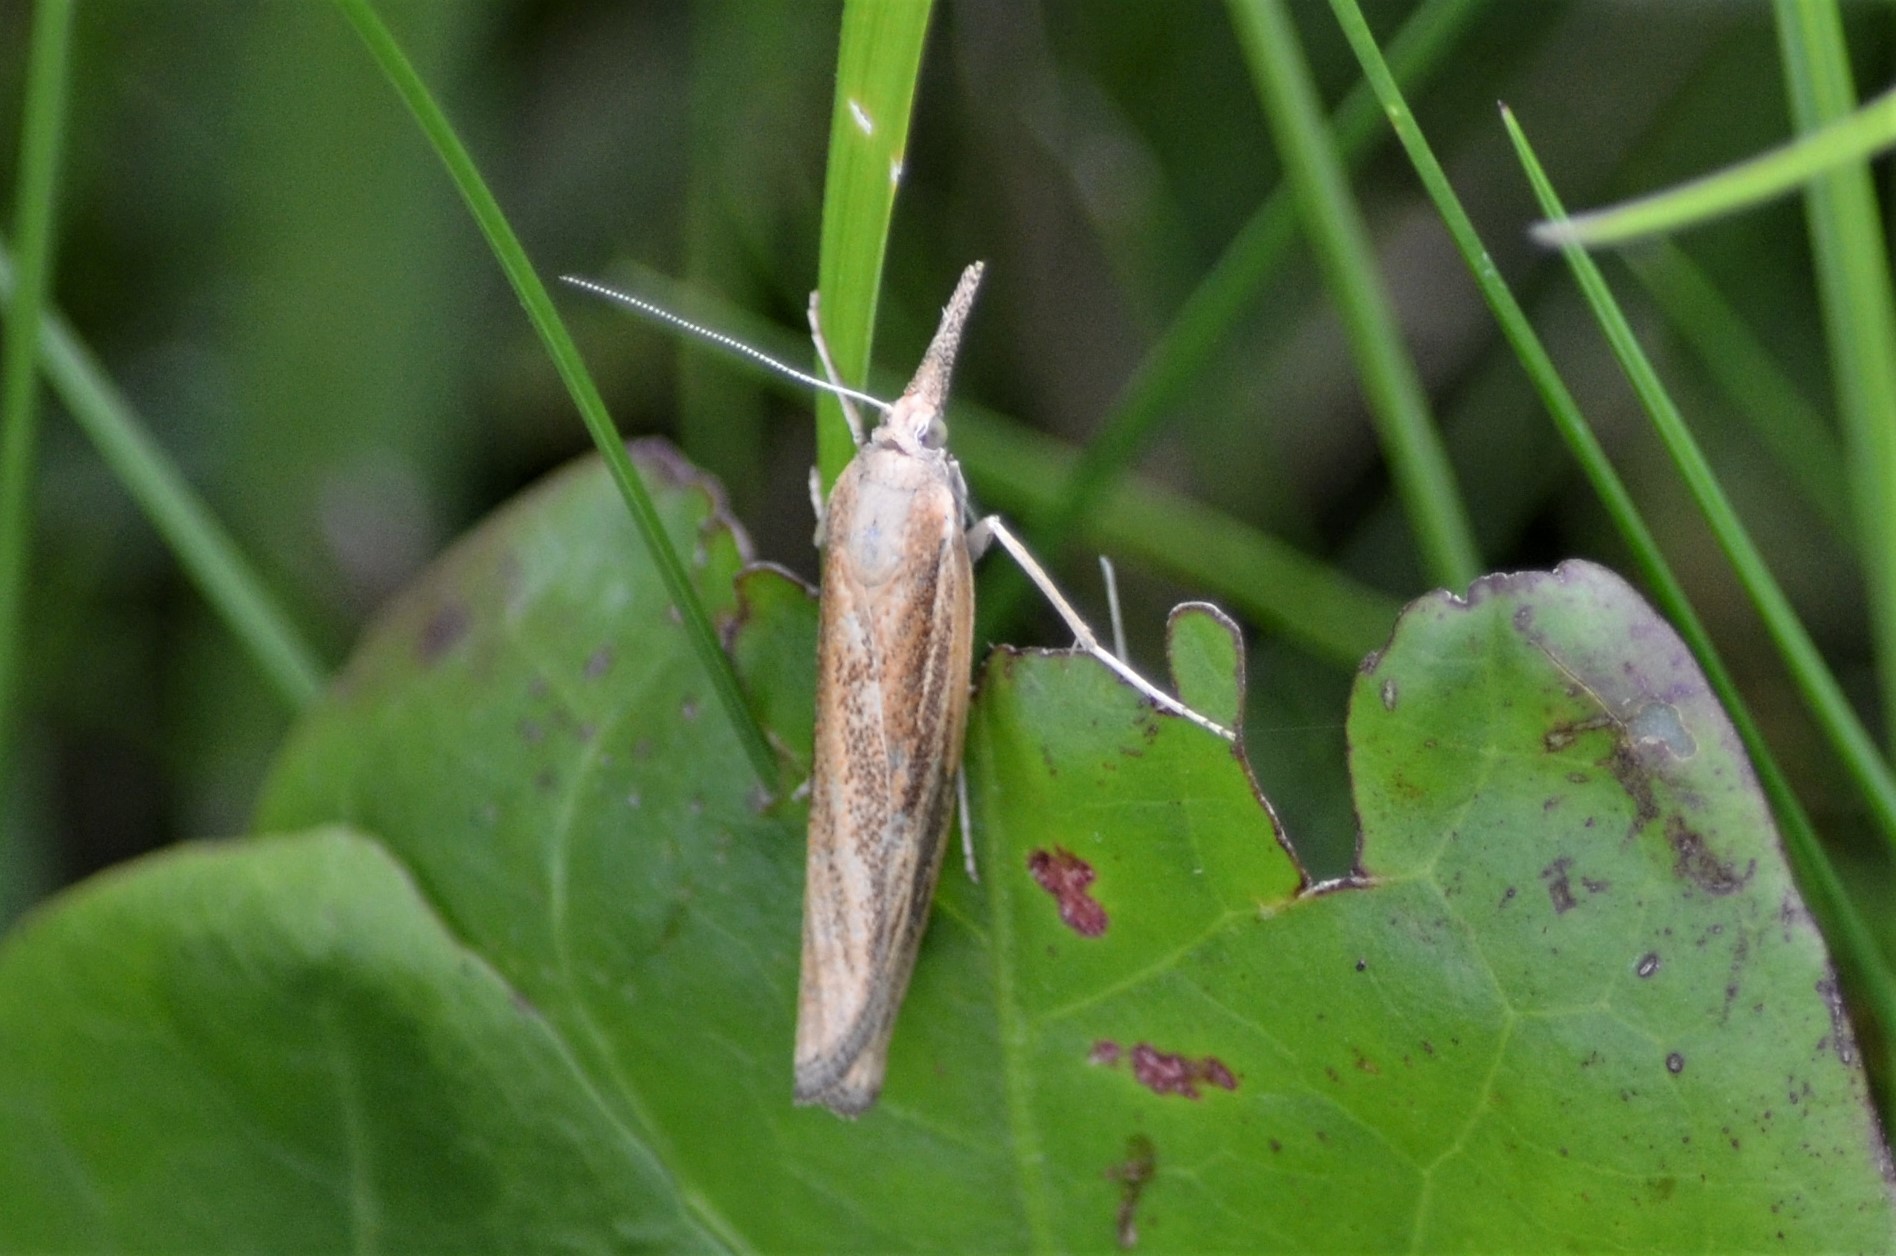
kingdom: Animalia
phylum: Arthropoda
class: Insecta
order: Lepidoptera
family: Crambidae
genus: Agriphila
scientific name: Agriphila tristellus
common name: Common grass-veneer
